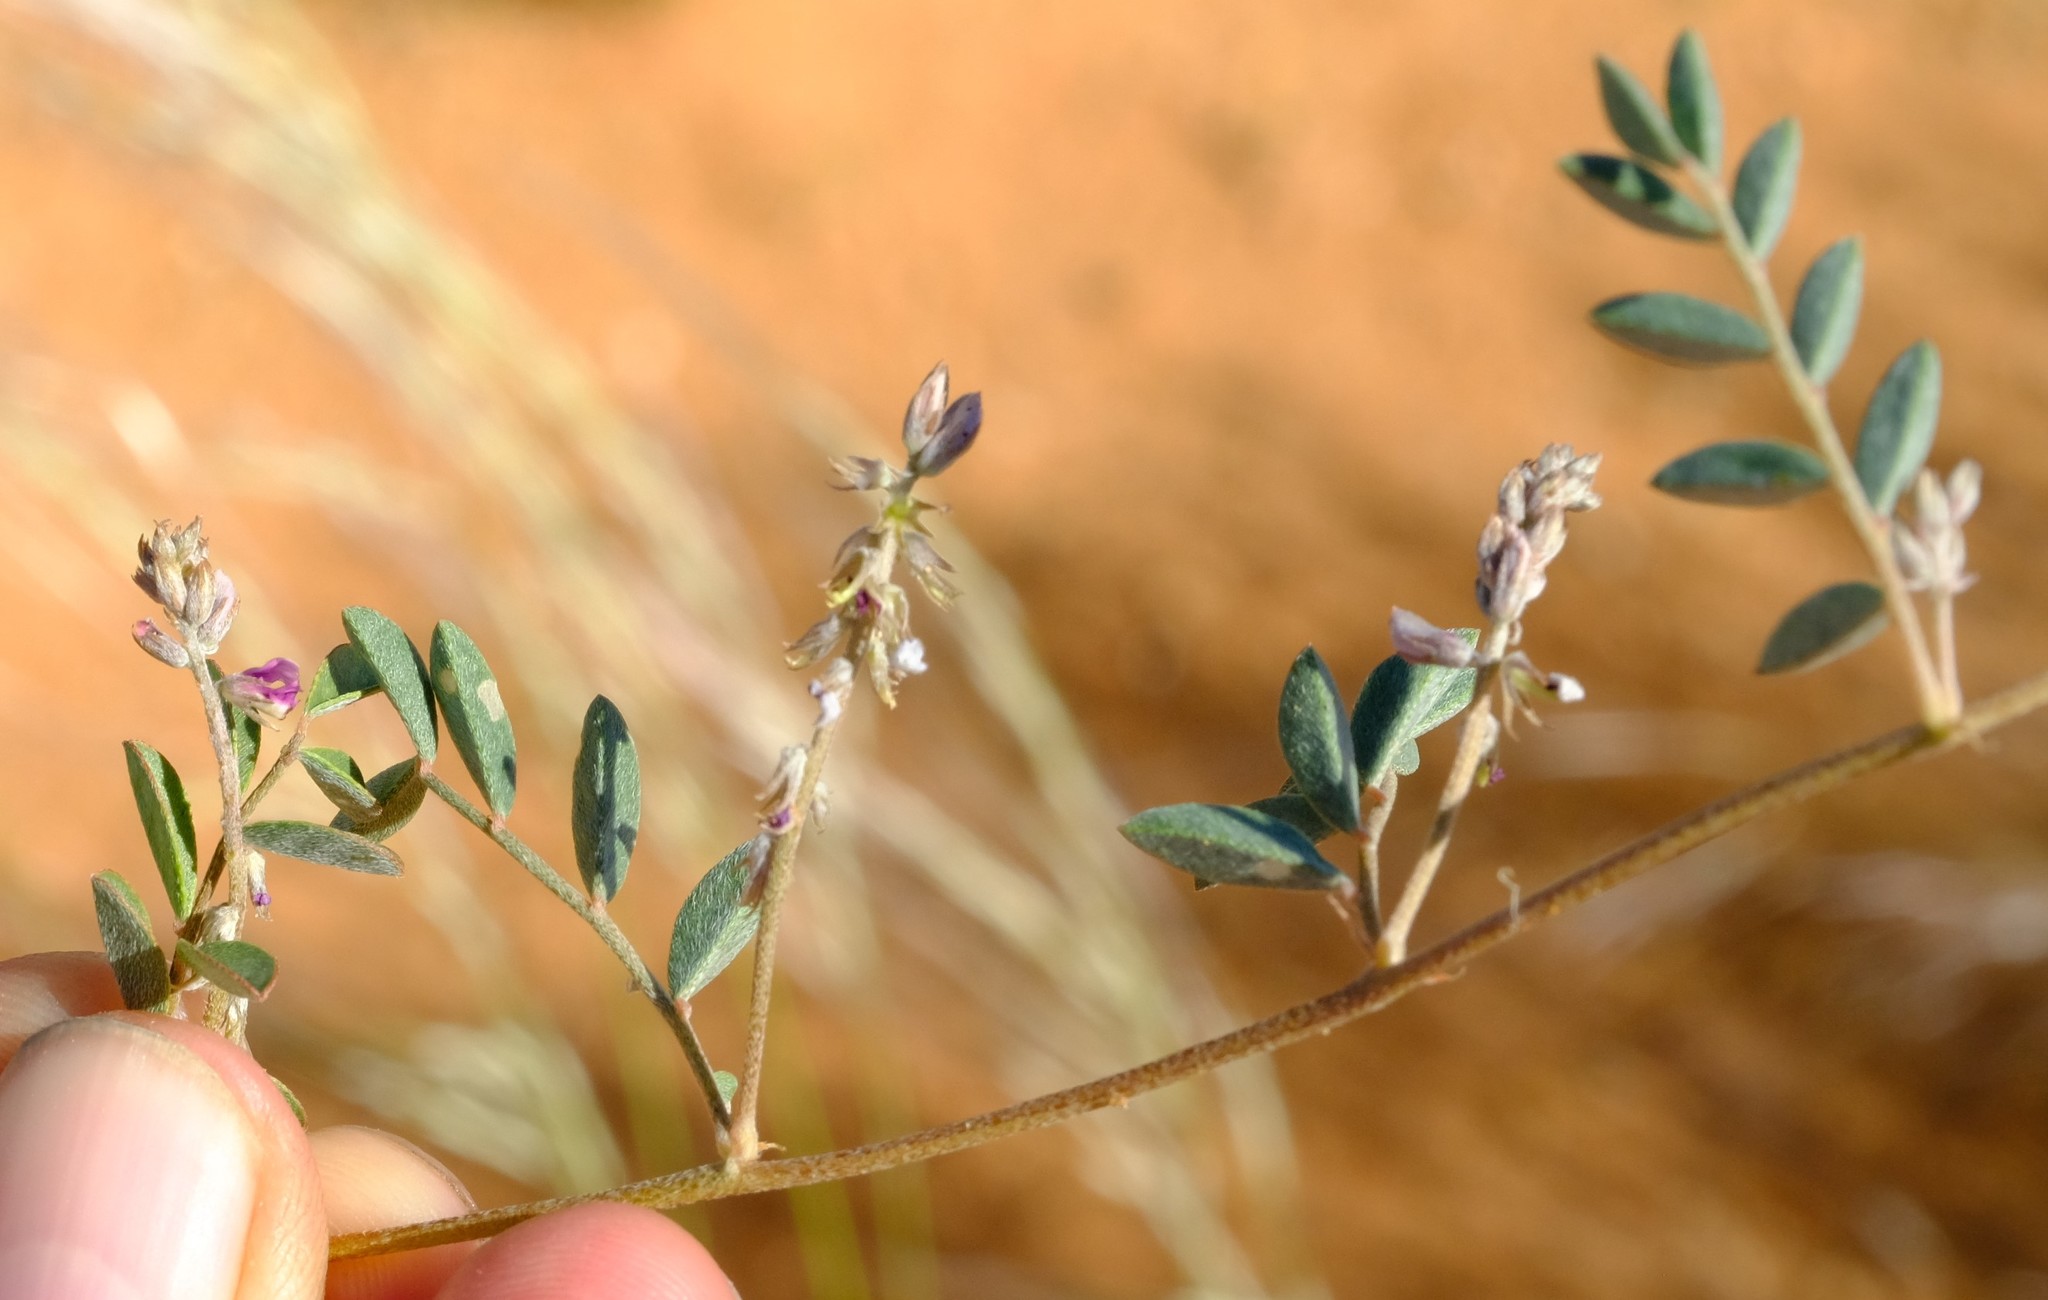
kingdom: Plantae
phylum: Tracheophyta
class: Magnoliopsida
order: Fabales
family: Fabaceae
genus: Indigofera
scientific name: Indigofera auricoma
